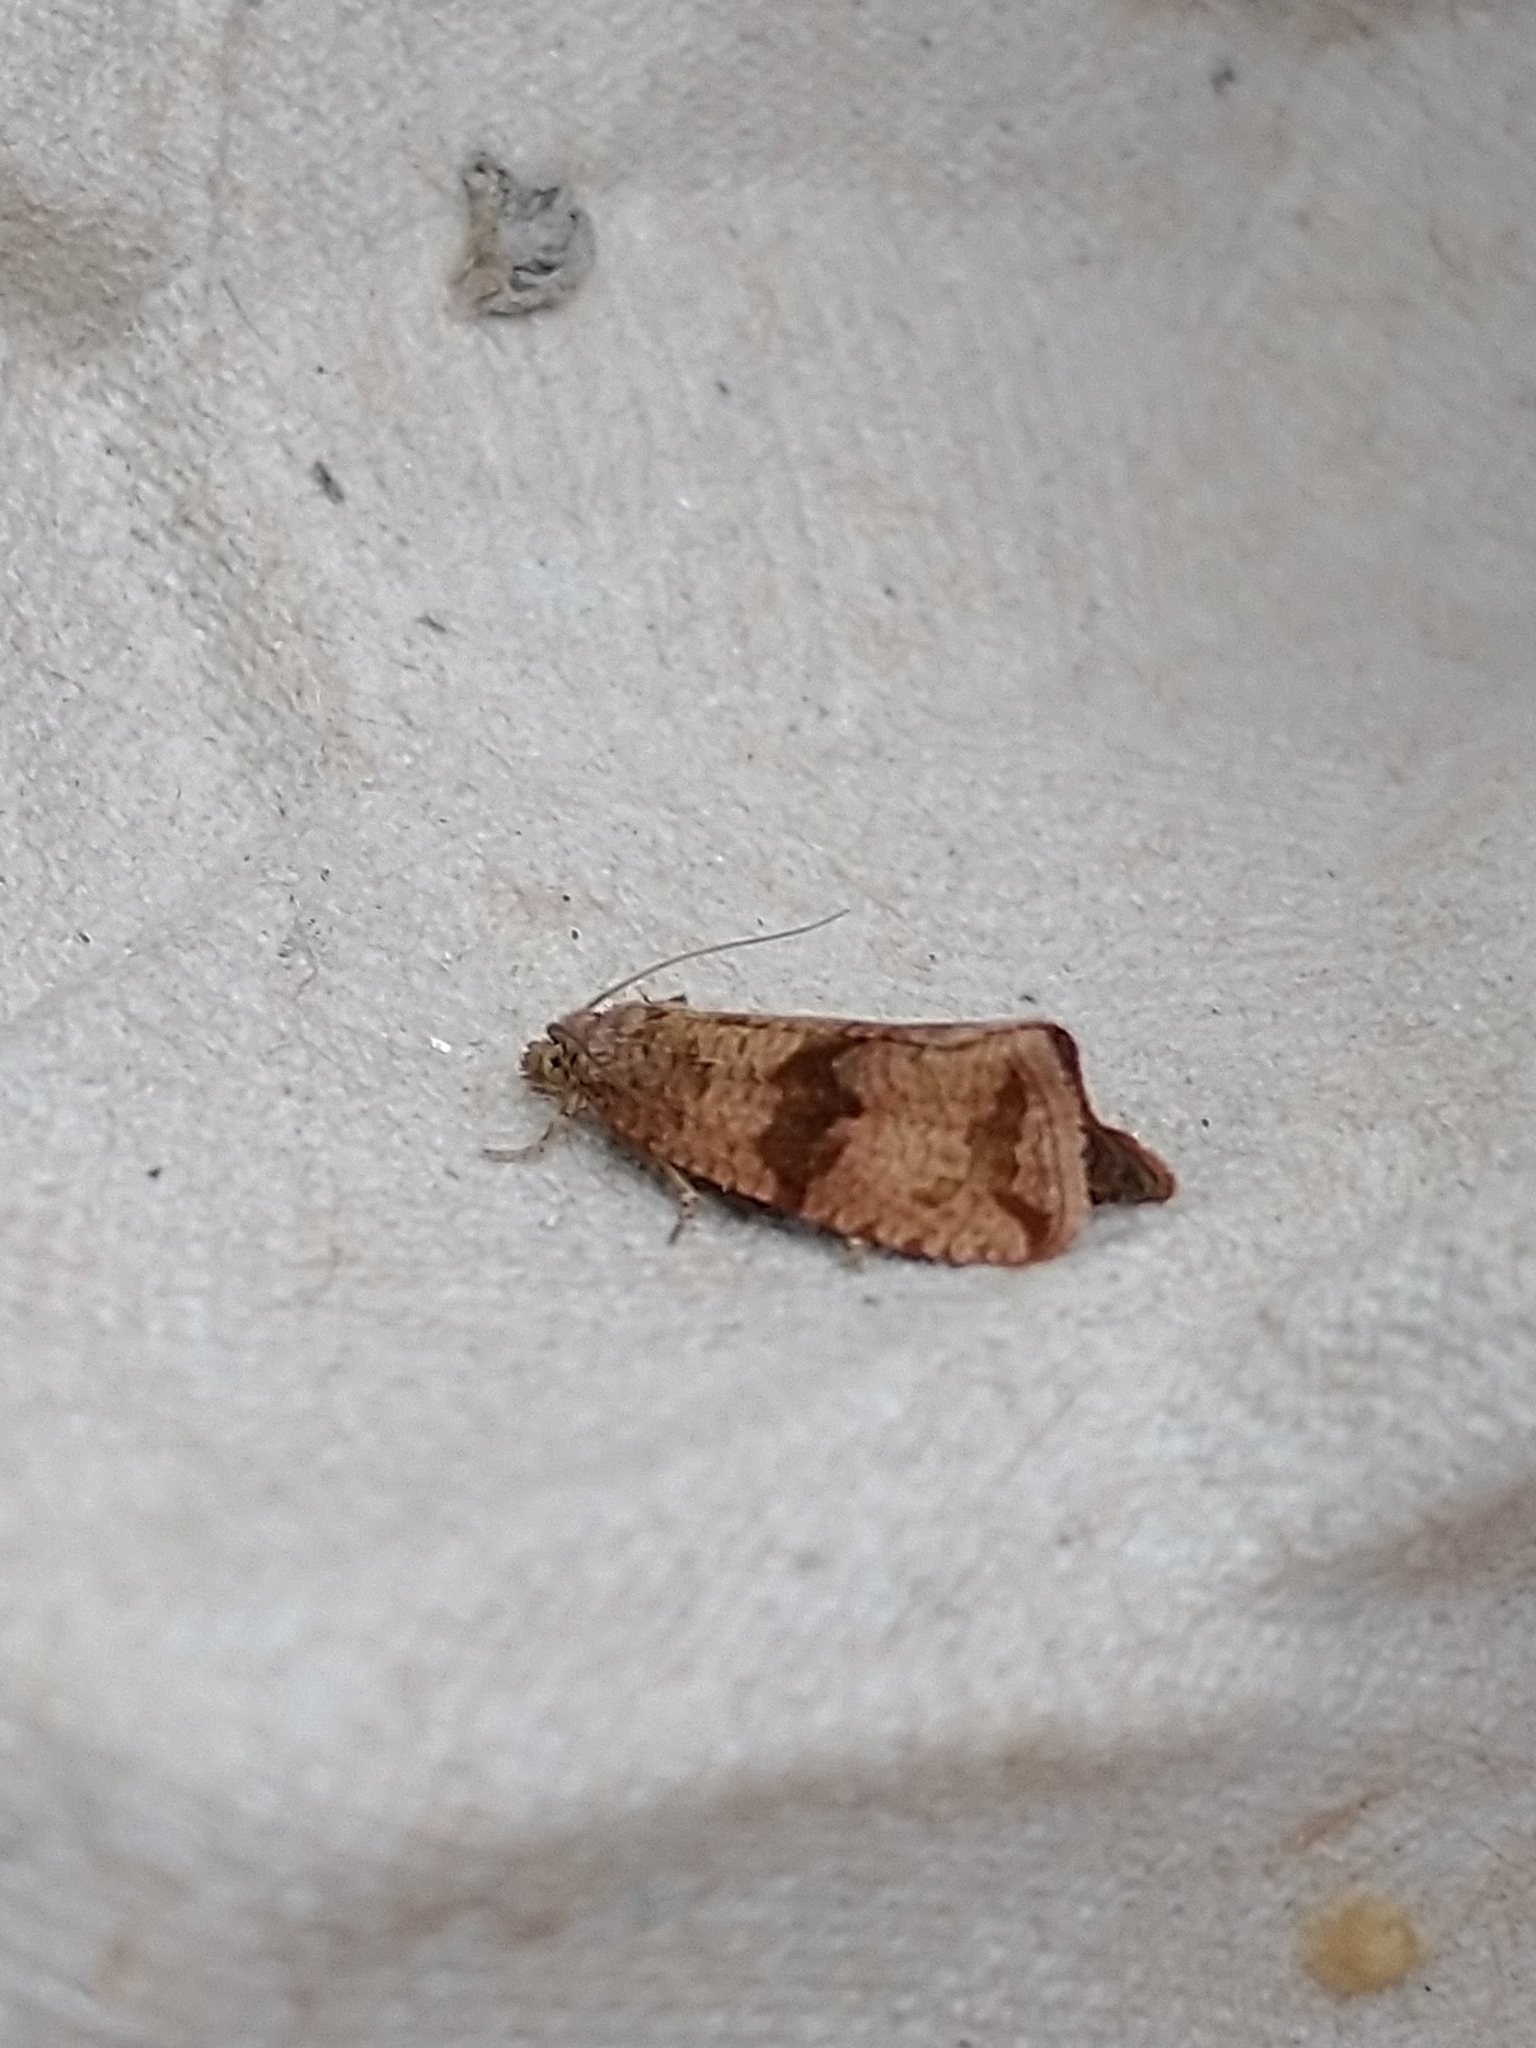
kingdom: Animalia
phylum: Arthropoda
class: Insecta
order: Lepidoptera
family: Tortricidae
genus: Celypha
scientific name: Celypha striana
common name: Barred marble
